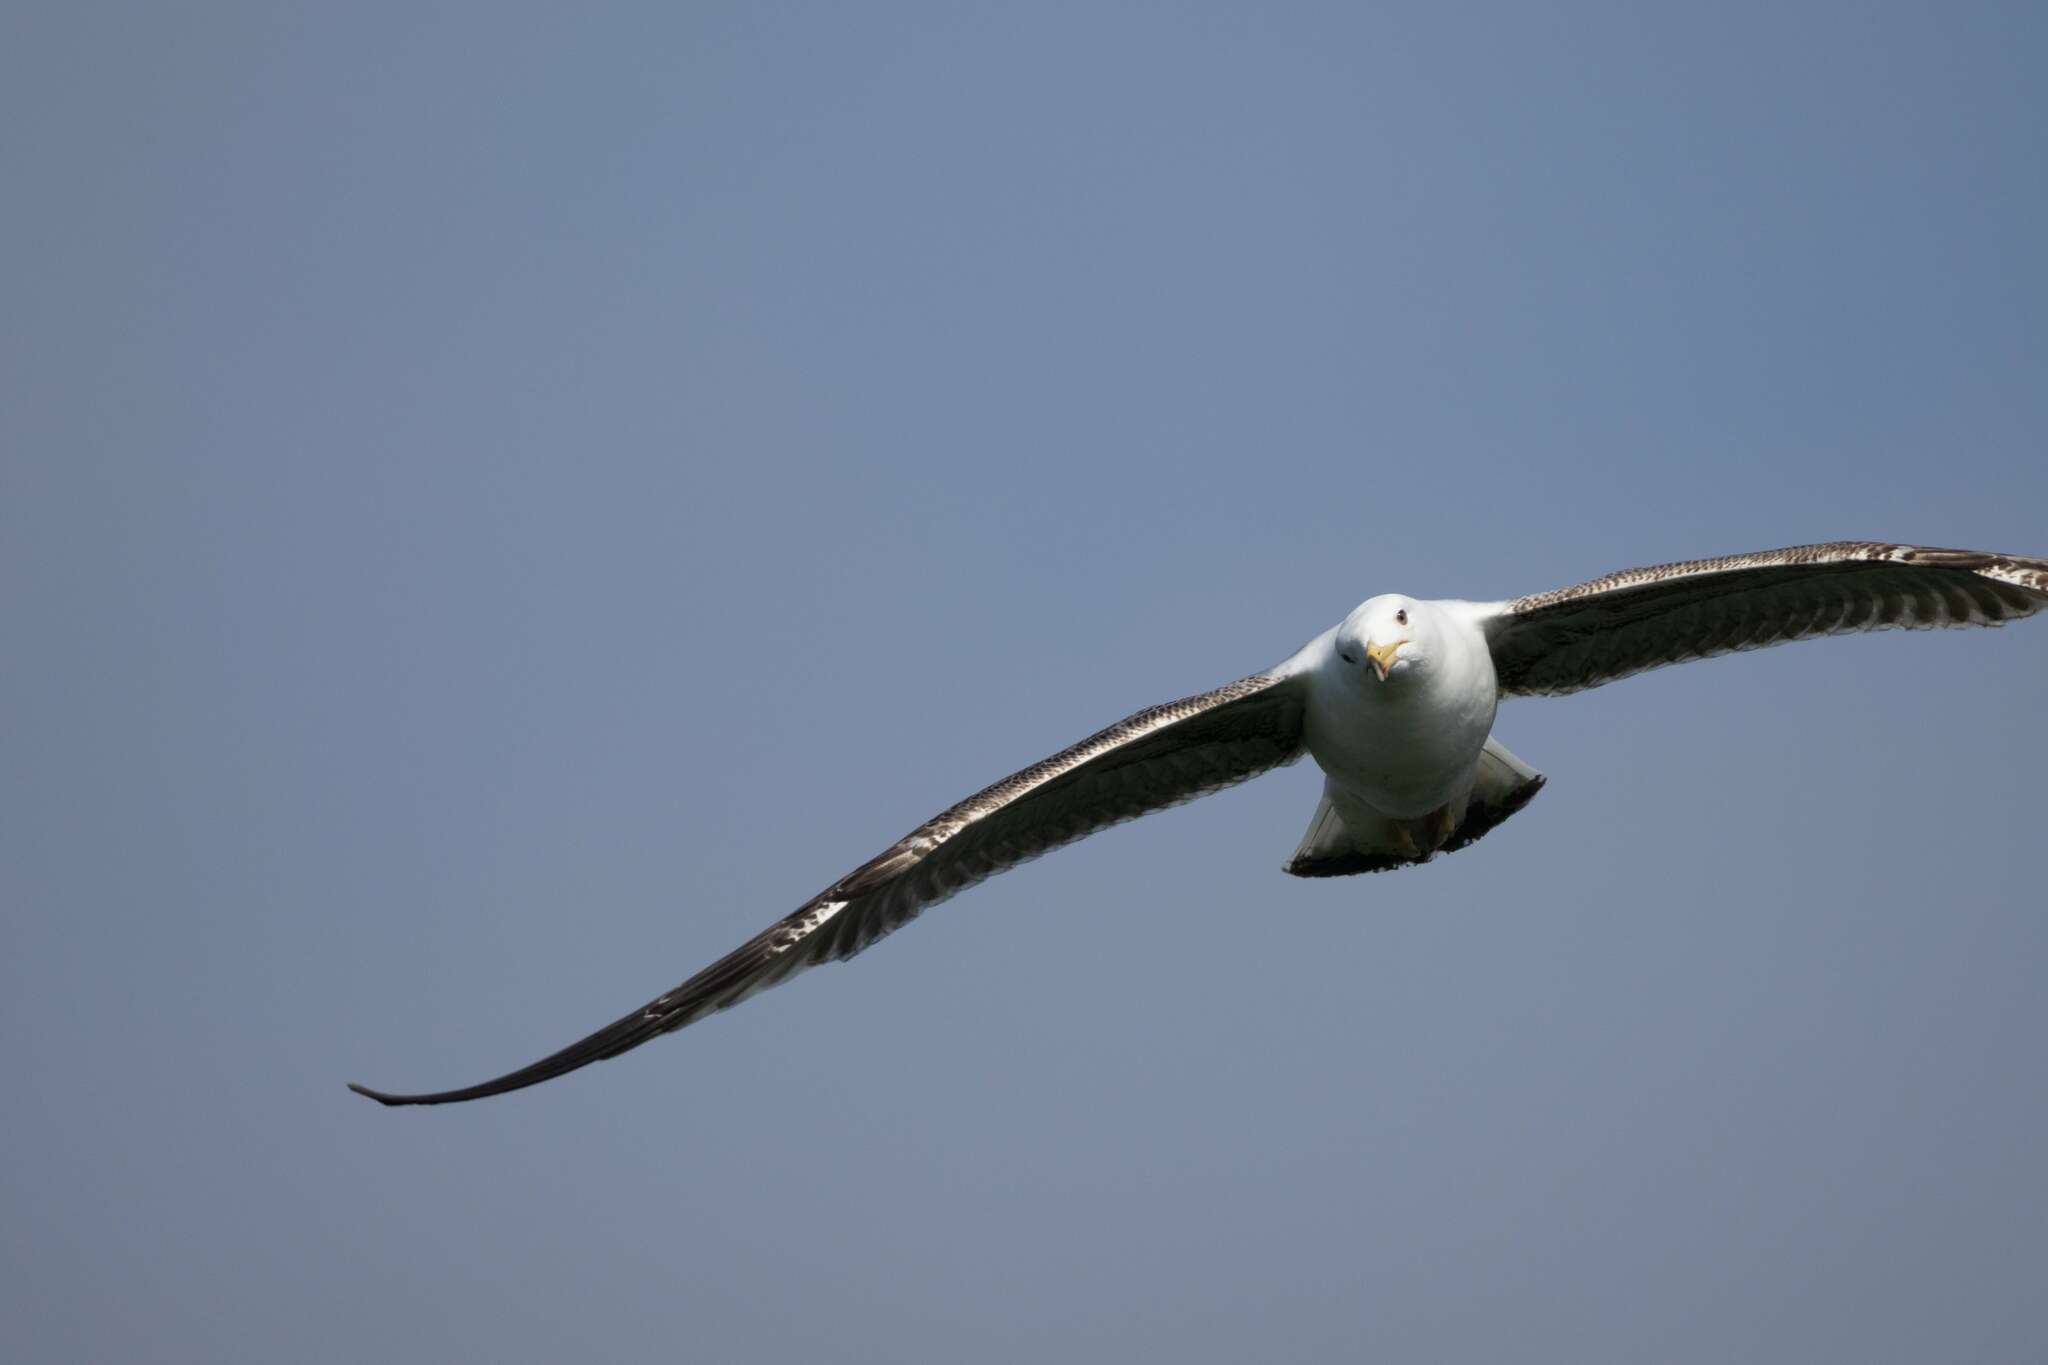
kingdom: Animalia
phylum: Chordata
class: Aves
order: Charadriiformes
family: Laridae
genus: Larus
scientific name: Larus fuscus
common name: Lesser black-backed gull
